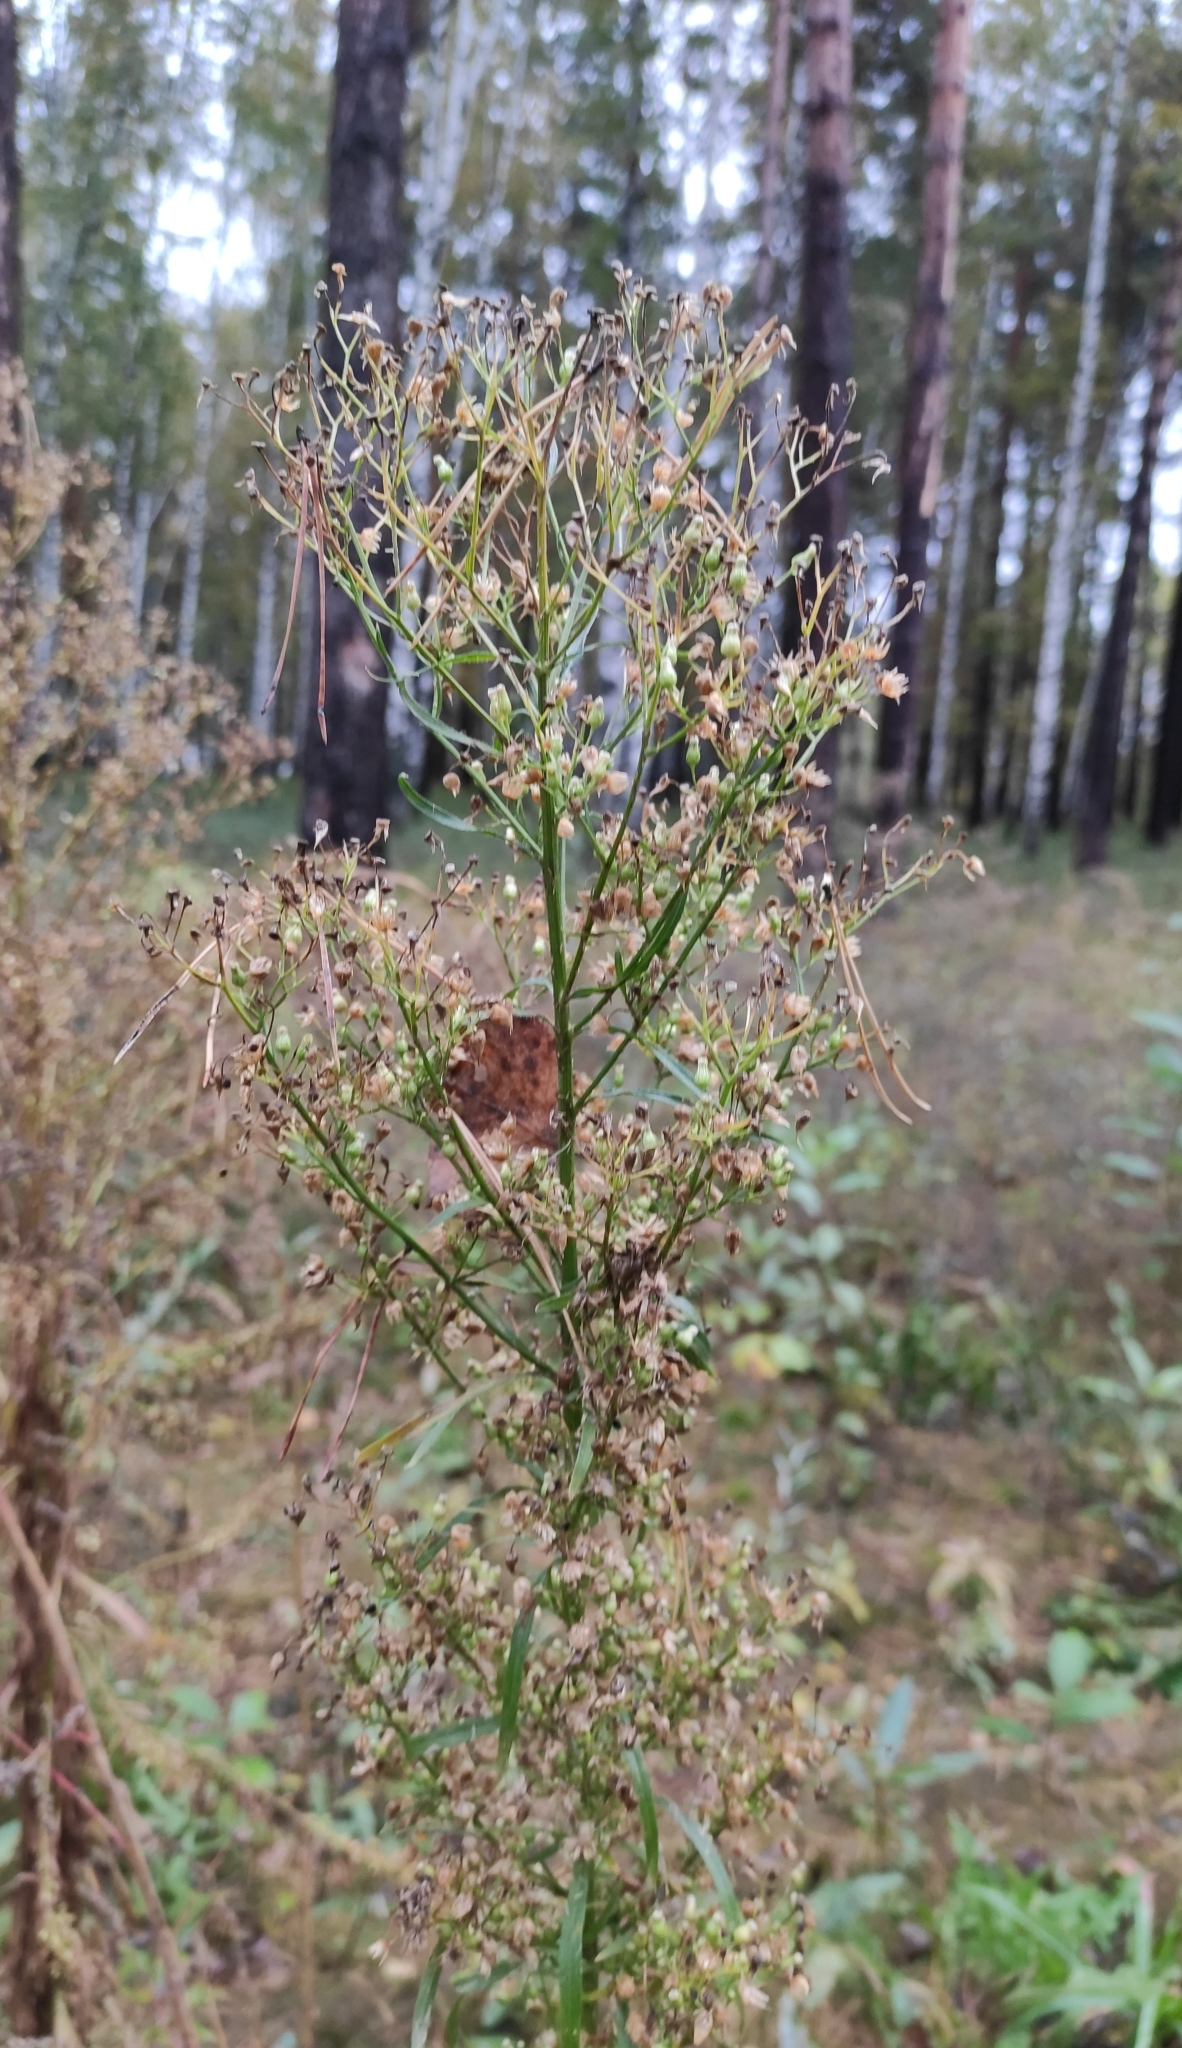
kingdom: Plantae
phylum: Tracheophyta
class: Magnoliopsida
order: Asterales
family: Asteraceae
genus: Erigeron
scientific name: Erigeron canadensis
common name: Canadian fleabane
